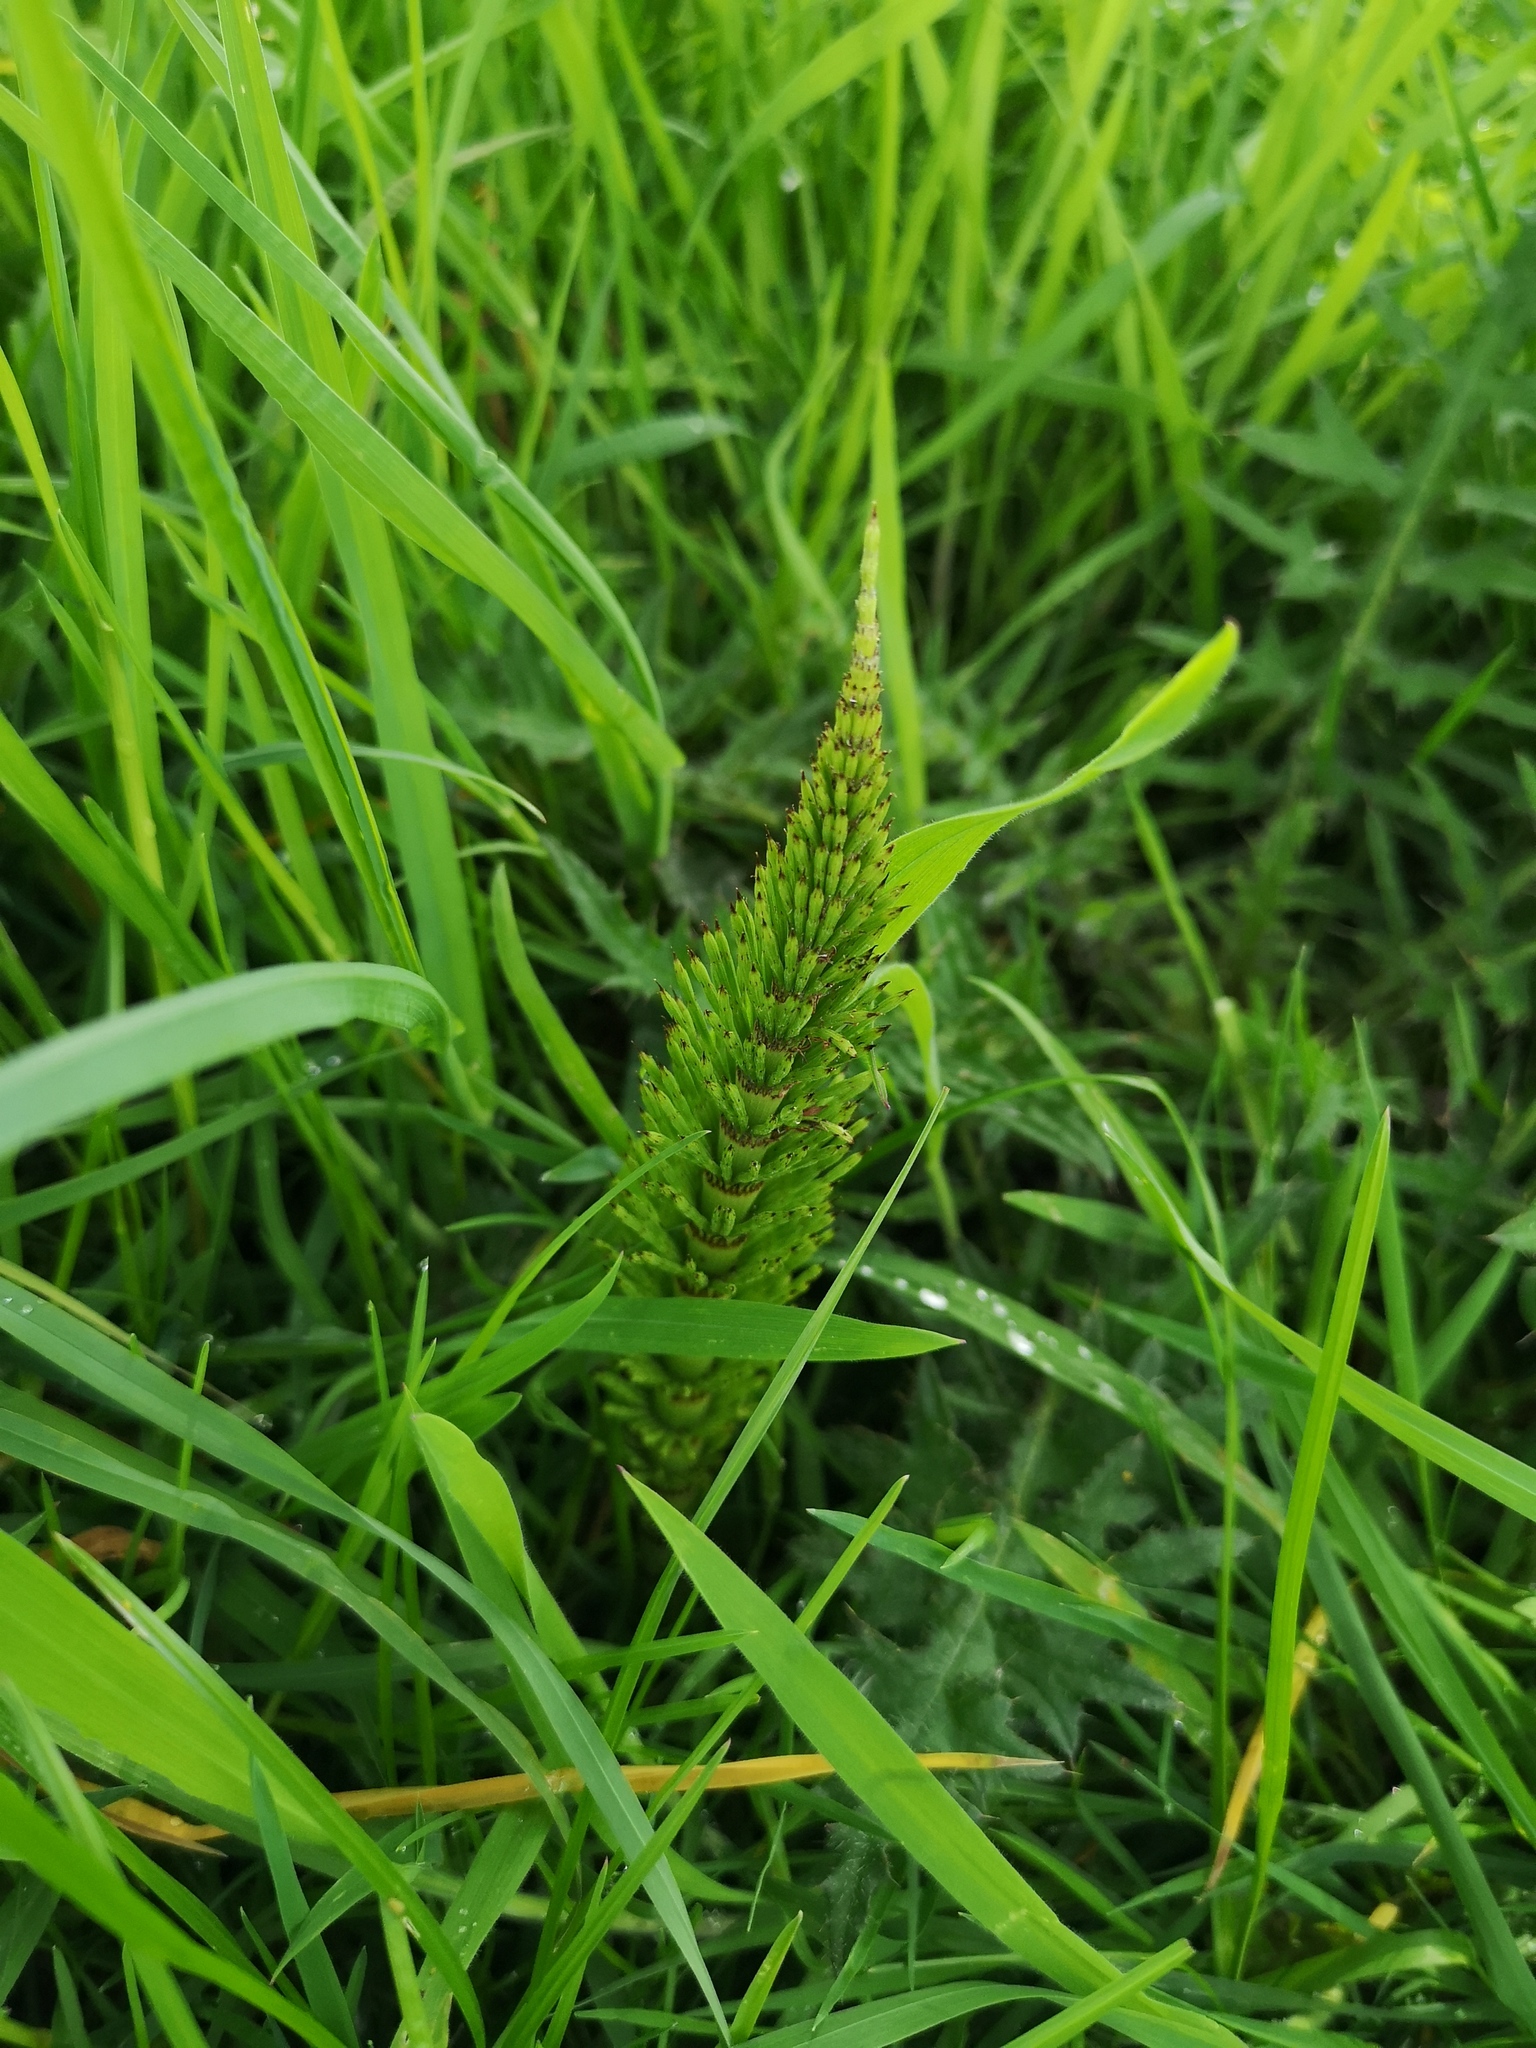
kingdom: Plantae
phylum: Tracheophyta
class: Polypodiopsida
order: Equisetales
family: Equisetaceae
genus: Equisetum
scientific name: Equisetum telmateia
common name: Great horsetail
